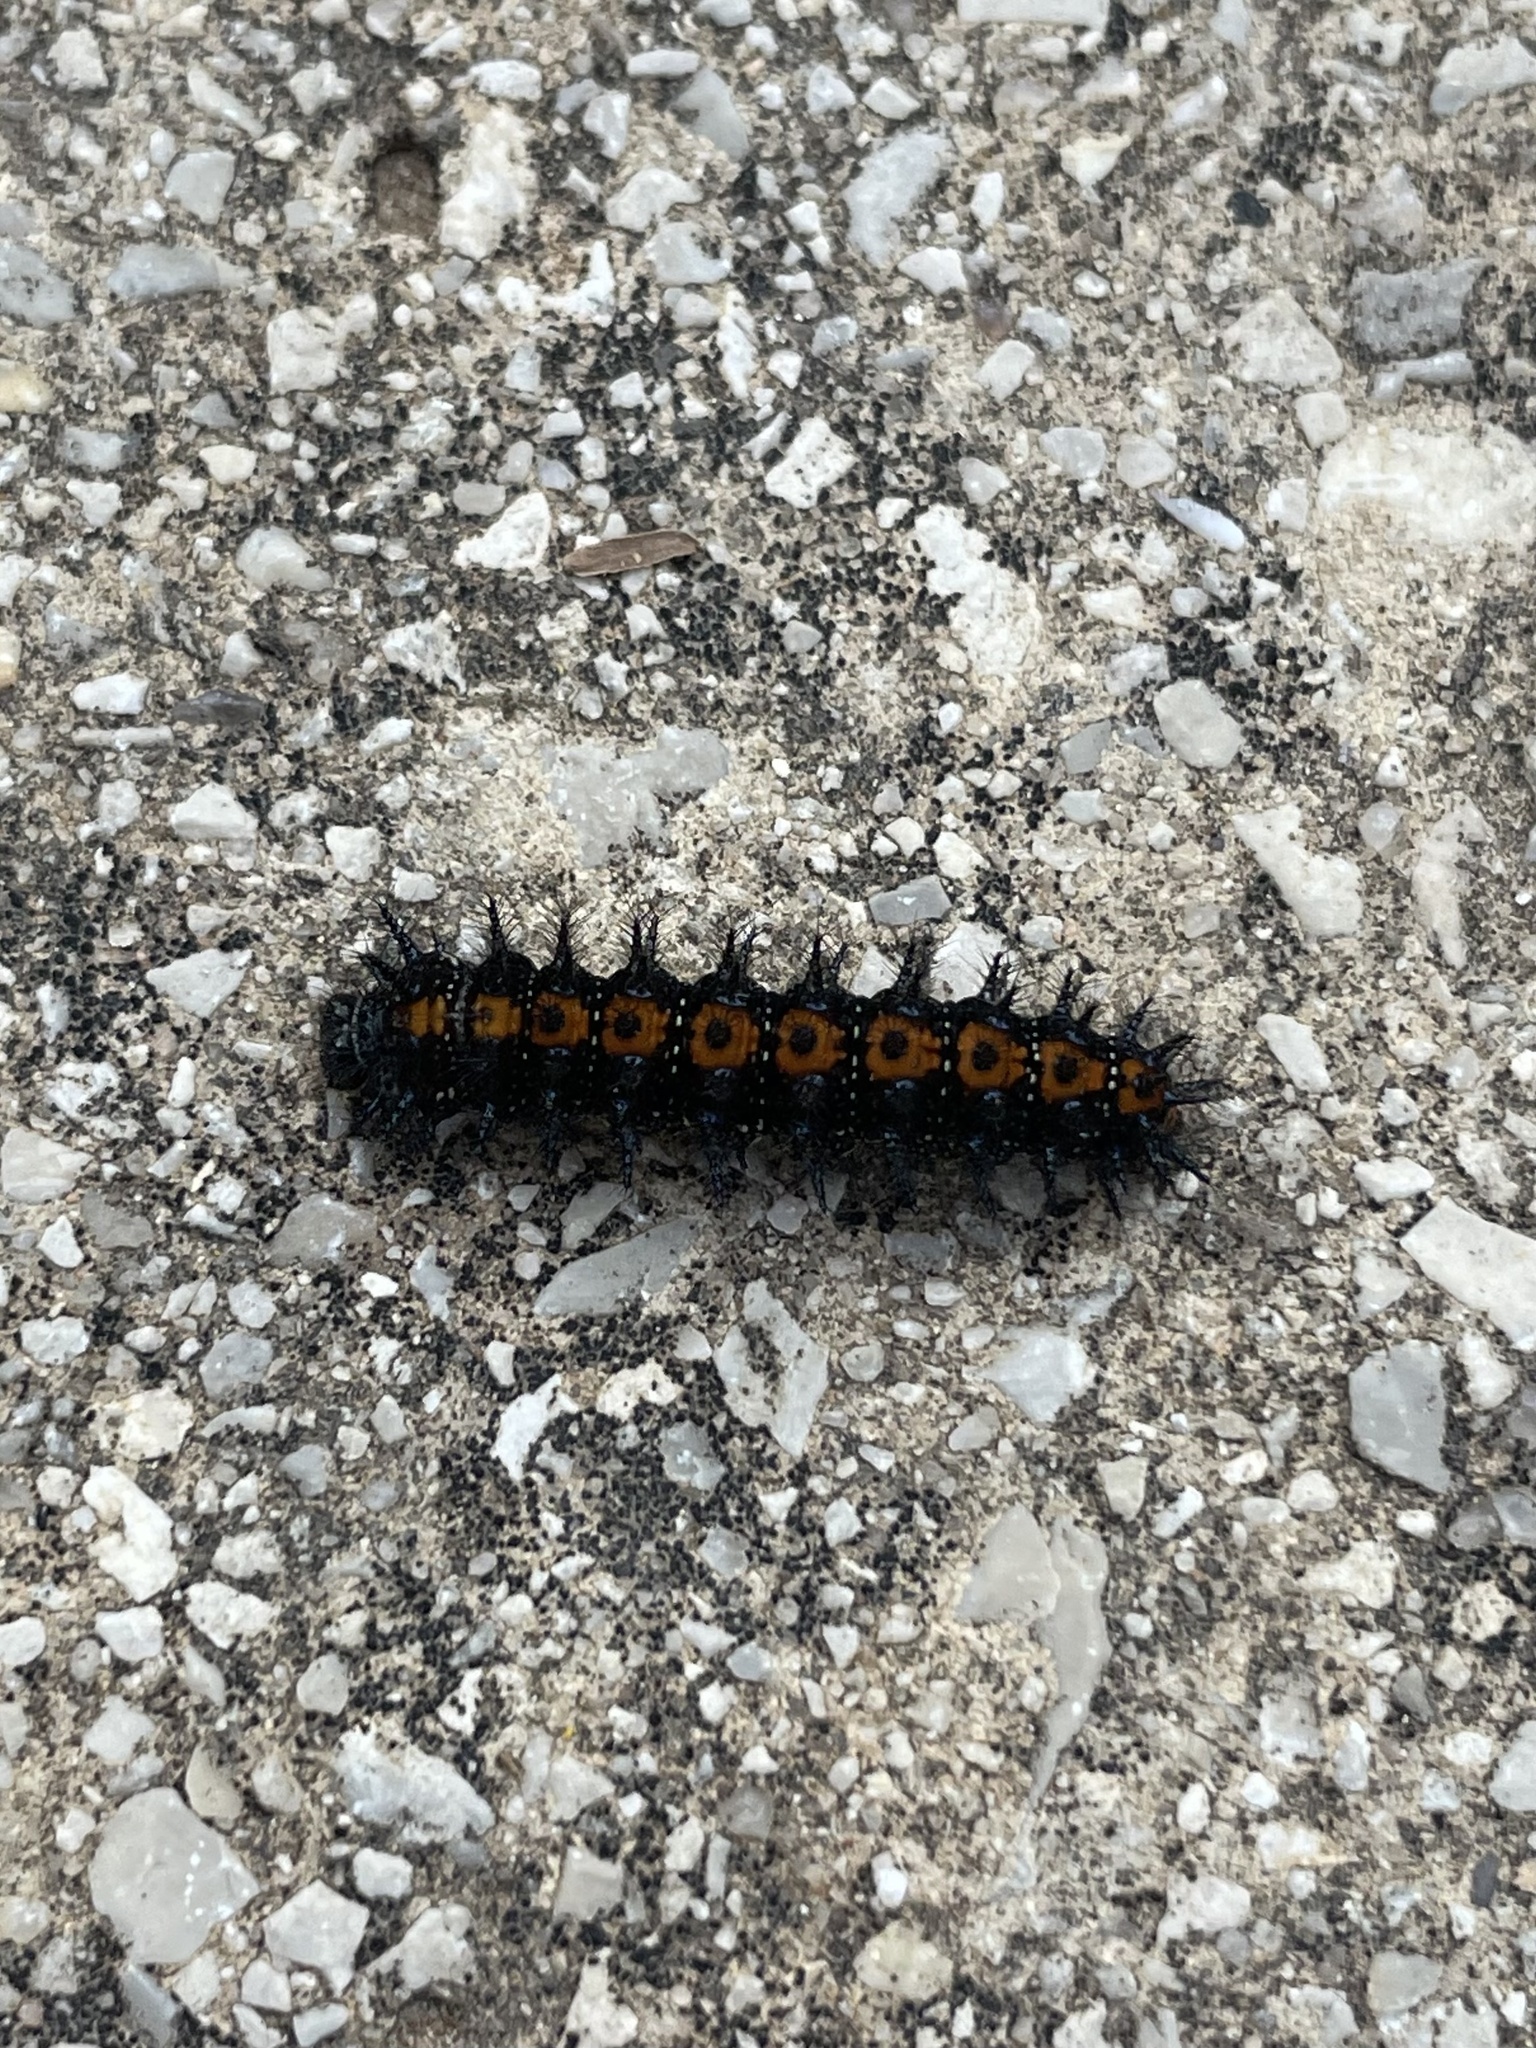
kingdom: Animalia
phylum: Arthropoda
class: Insecta
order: Lepidoptera
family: Nymphalidae
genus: Chlosyne
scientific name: Chlosyne lacinia
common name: Bordered patch
